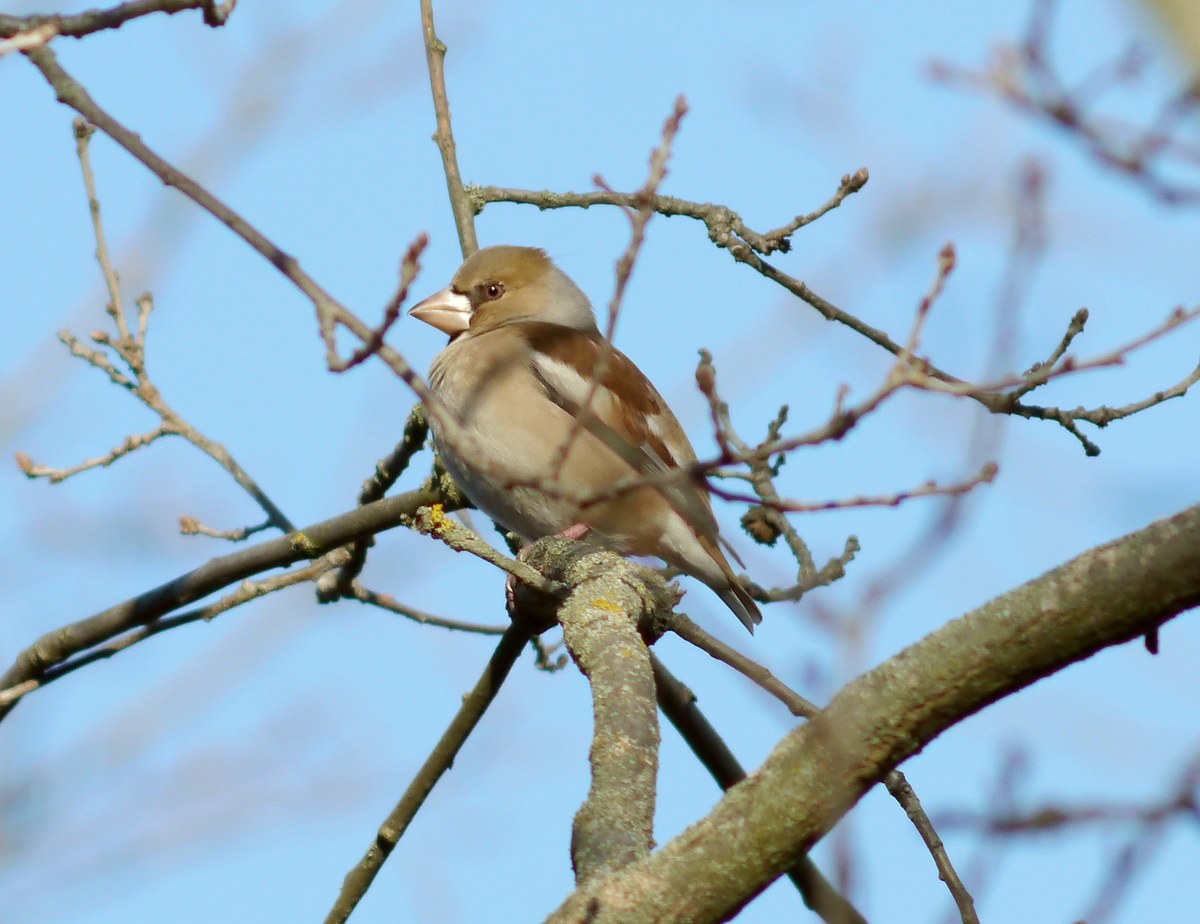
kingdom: Animalia
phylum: Chordata
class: Aves
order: Passeriformes
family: Fringillidae
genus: Coccothraustes
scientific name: Coccothraustes coccothraustes
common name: Hawfinch
